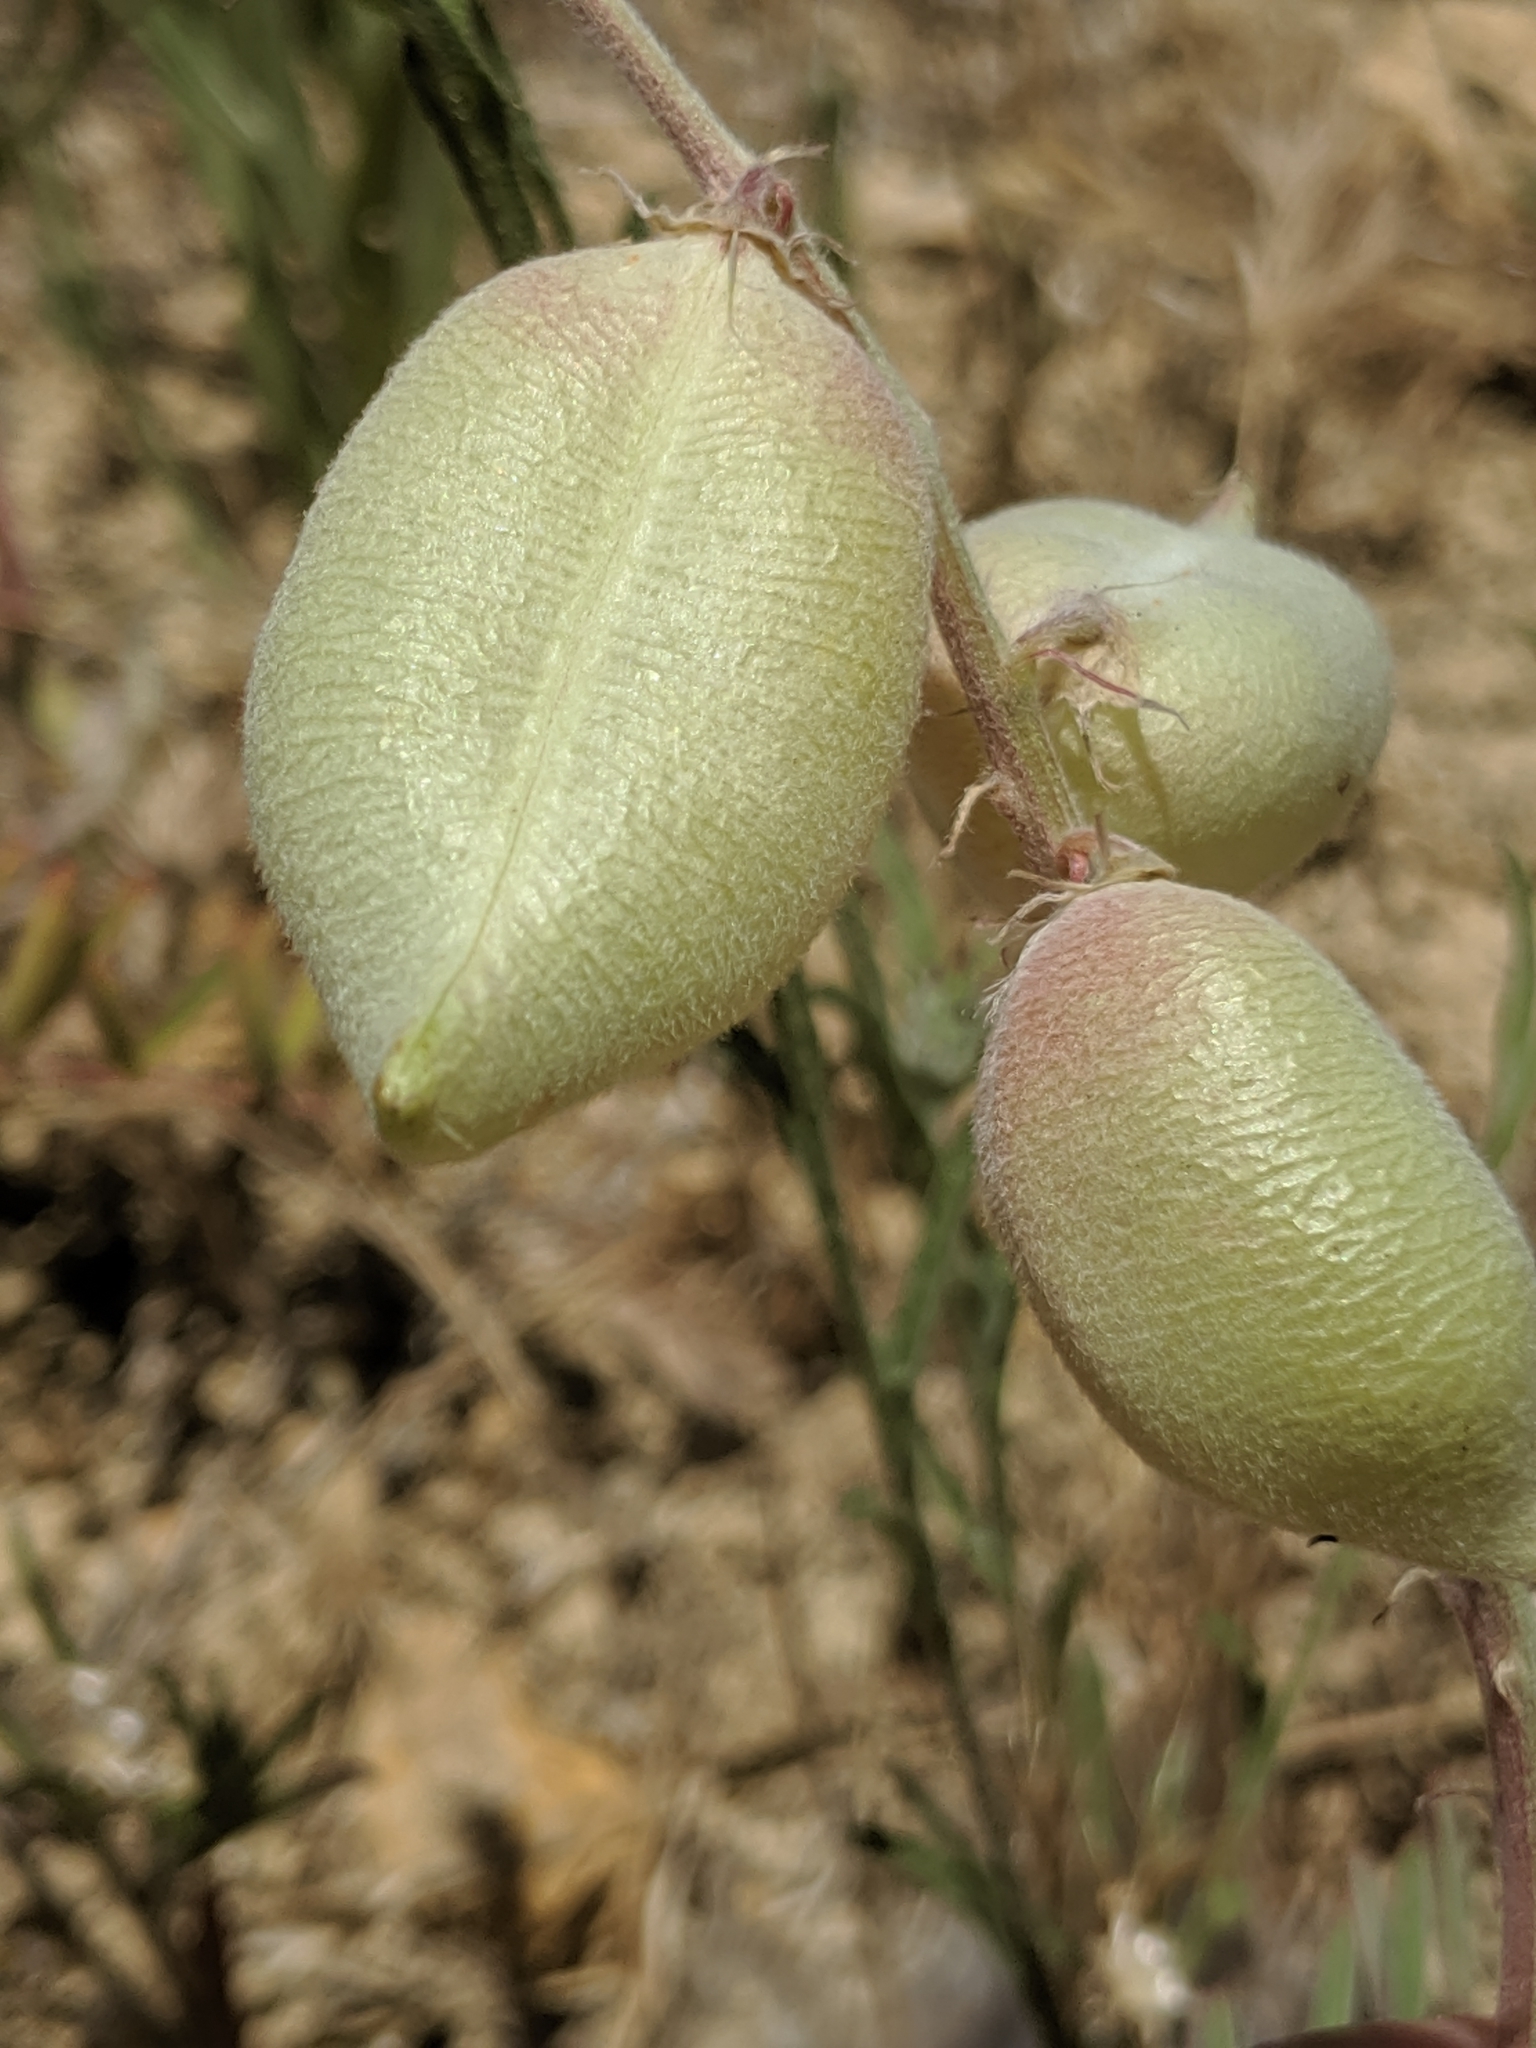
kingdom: Plantae
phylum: Tracheophyta
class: Magnoliopsida
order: Fabales
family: Fabaceae
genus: Astragalus
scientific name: Astragalus macrodon
